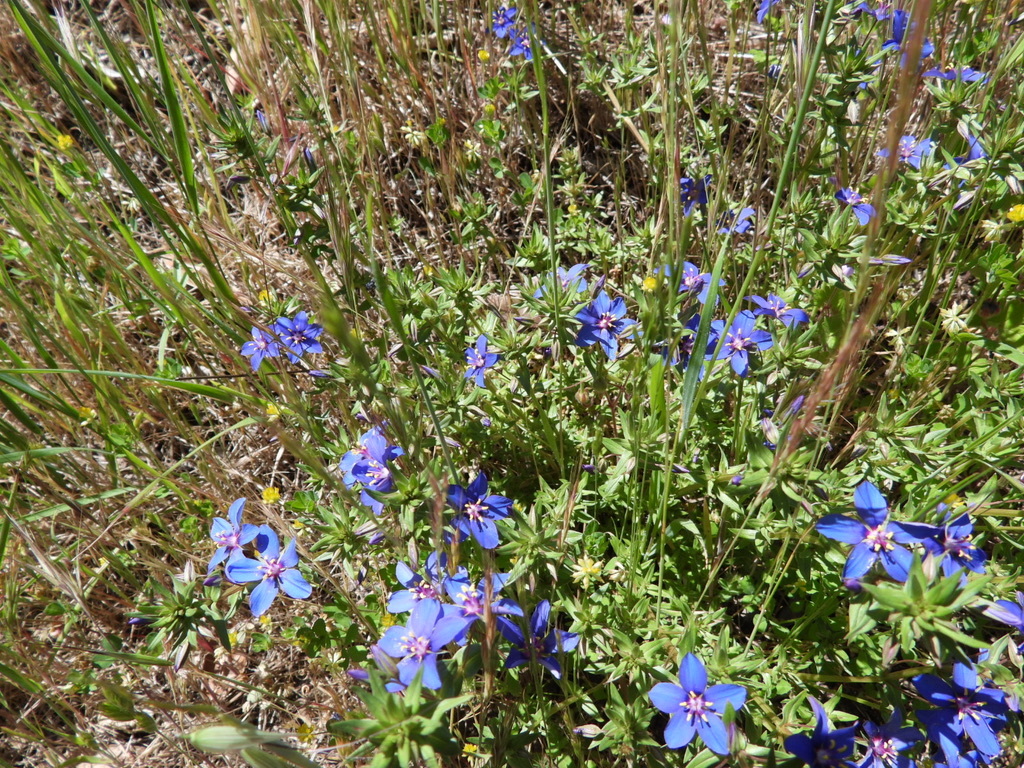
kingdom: Plantae
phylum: Tracheophyta
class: Magnoliopsida
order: Ericales
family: Primulaceae
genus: Lysimachia
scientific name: Lysimachia monelli
